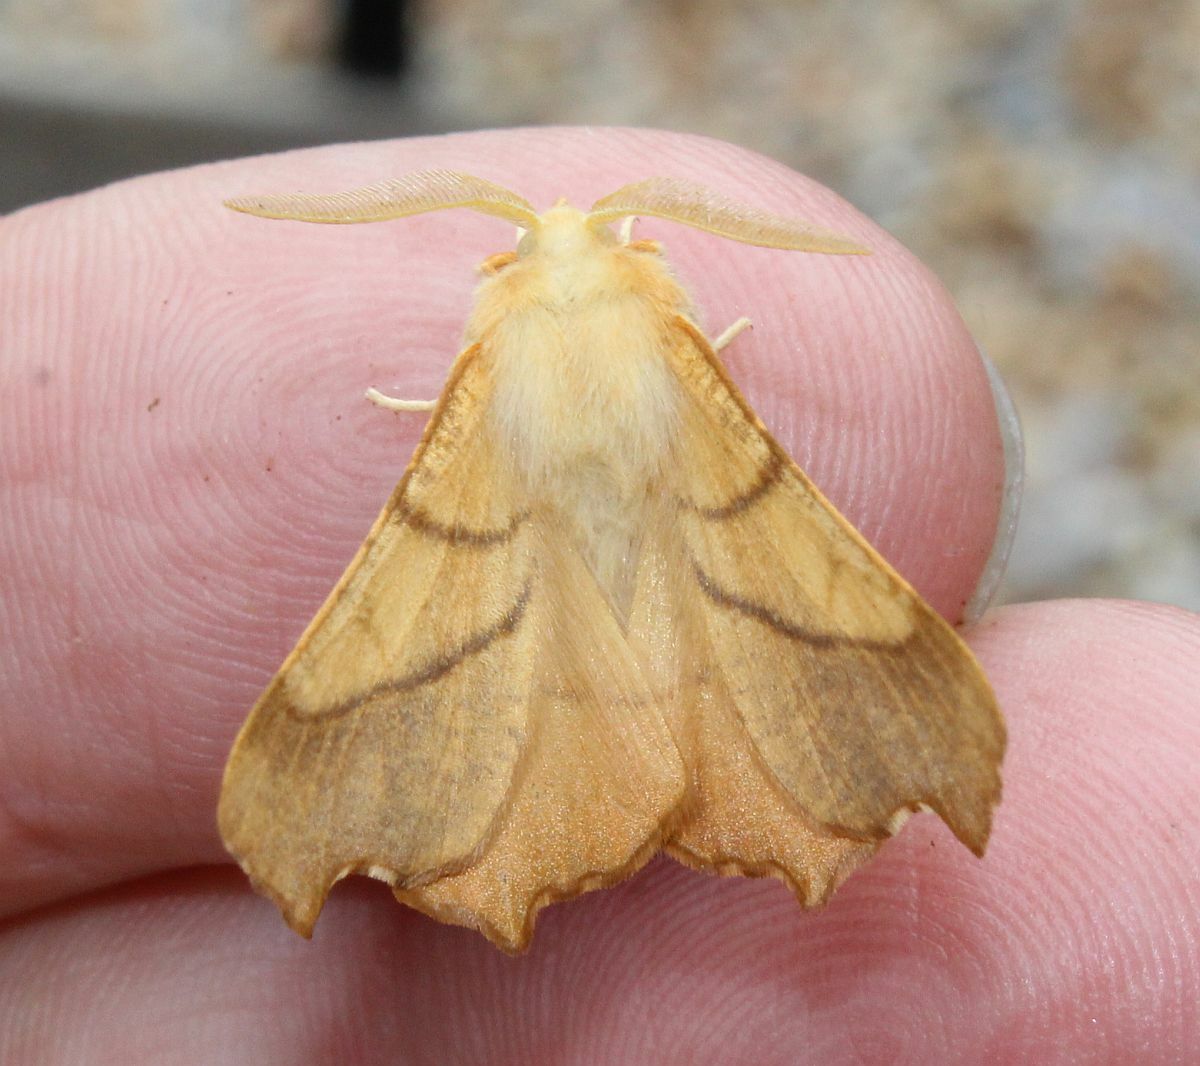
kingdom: Animalia
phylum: Arthropoda
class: Insecta
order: Lepidoptera
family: Geometridae
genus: Ennomos
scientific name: Ennomos fuscantaria
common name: Dusky thorn
